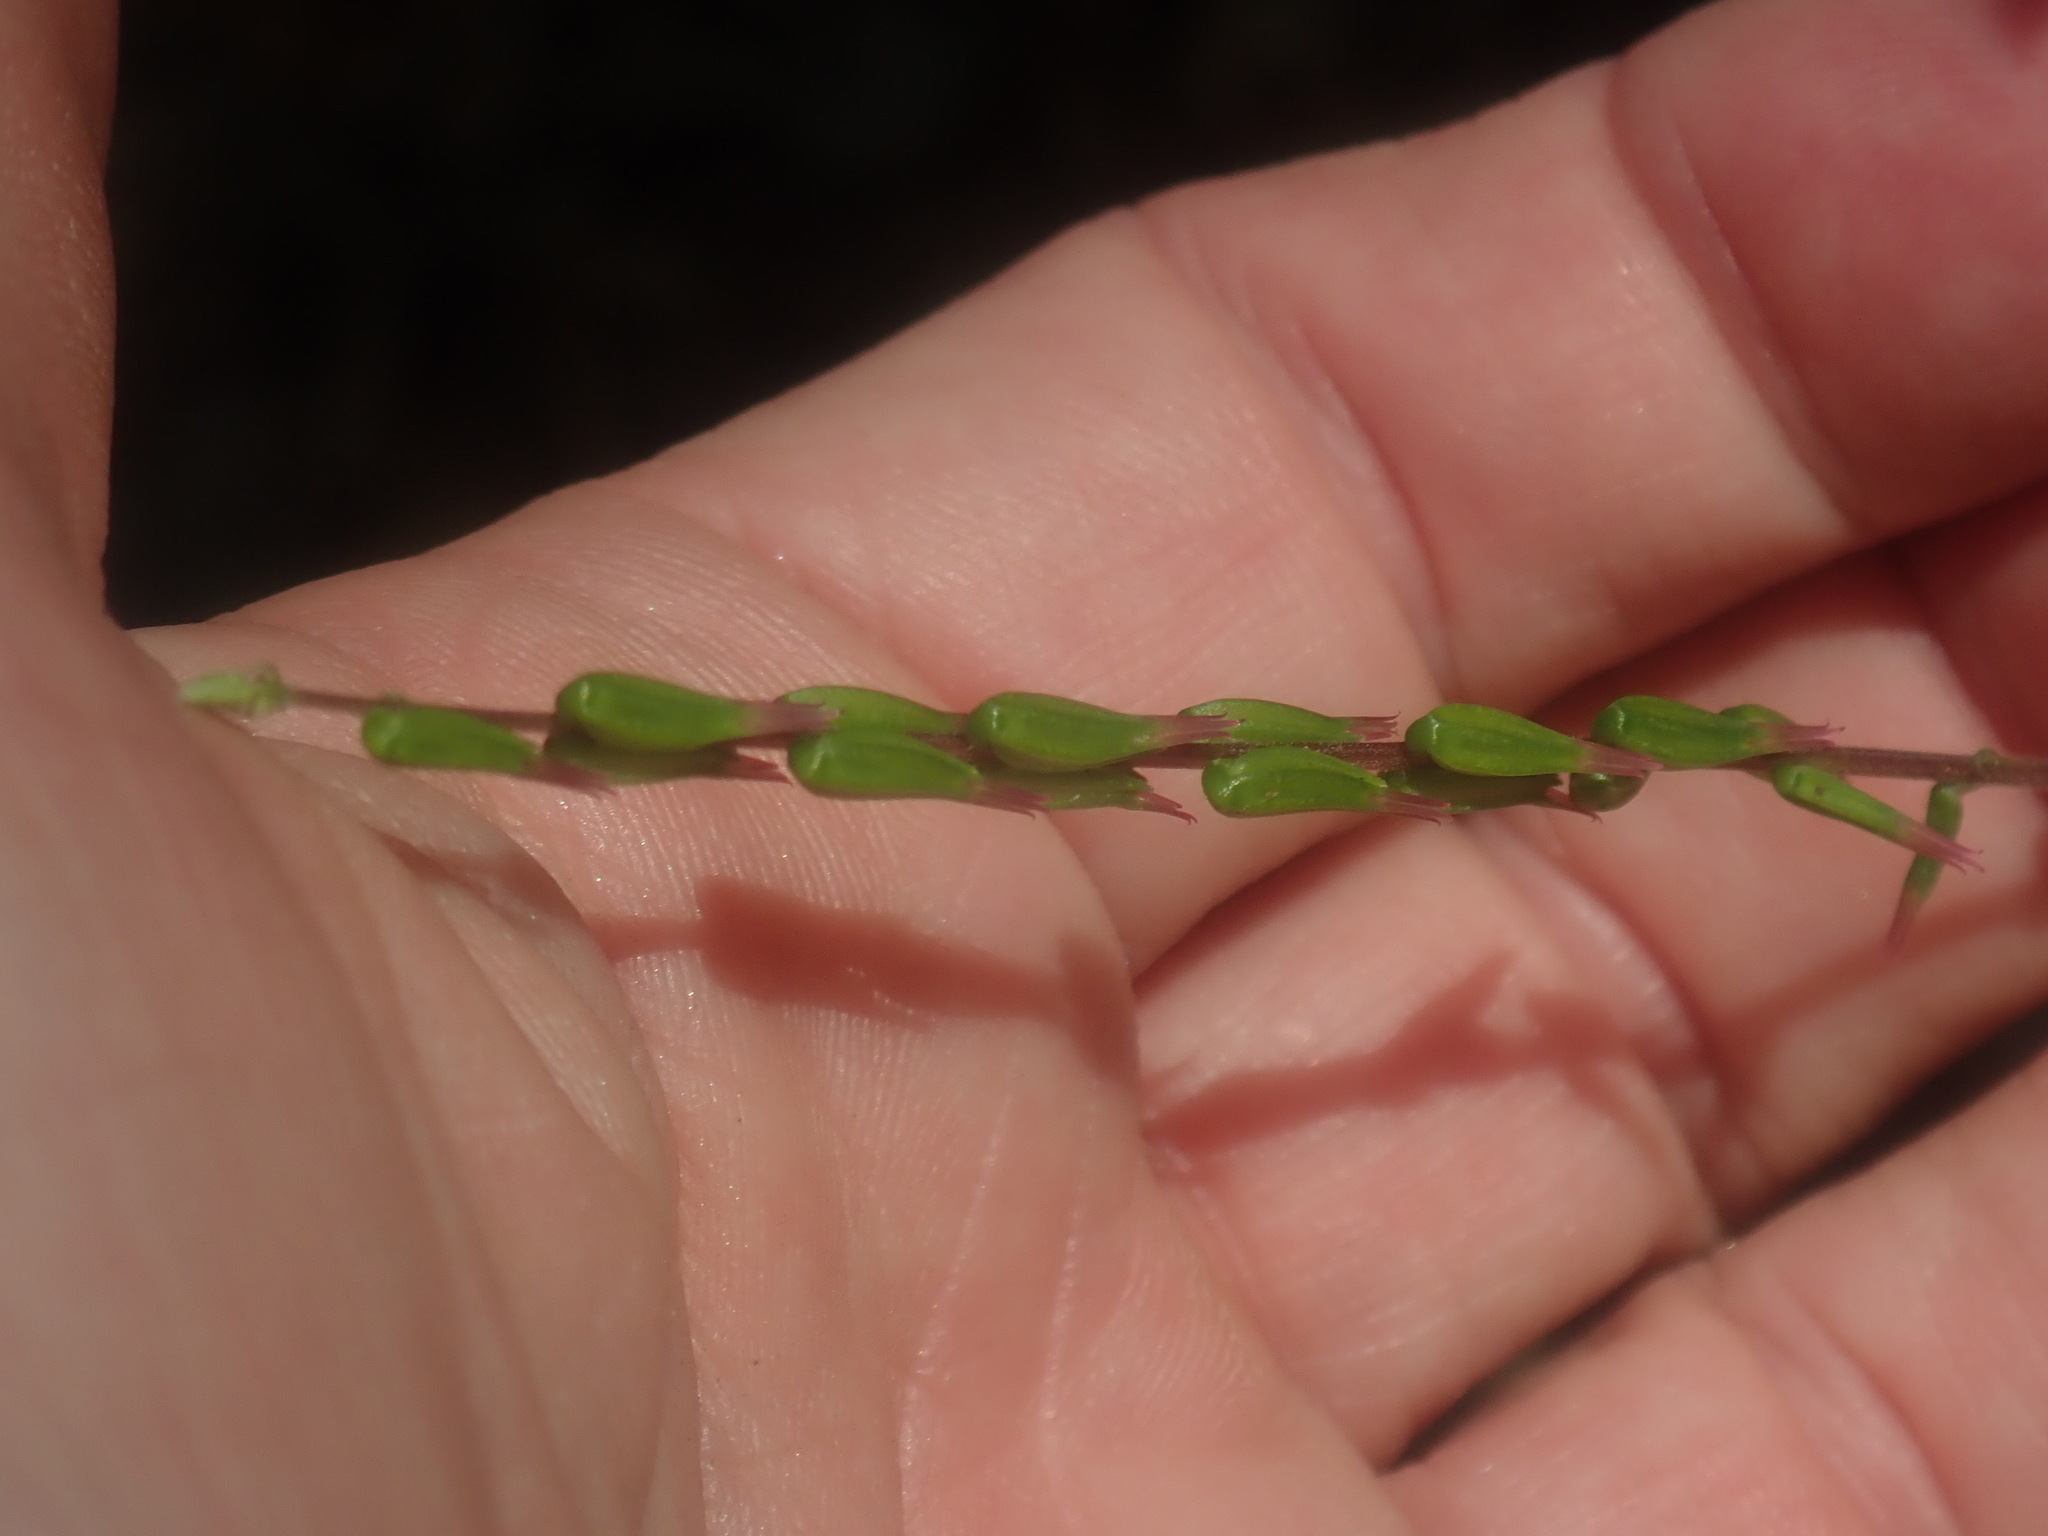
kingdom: Plantae
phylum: Tracheophyta
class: Magnoliopsida
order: Lamiales
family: Phrymaceae
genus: Phryma
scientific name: Phryma leptostachya
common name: American lopseed
